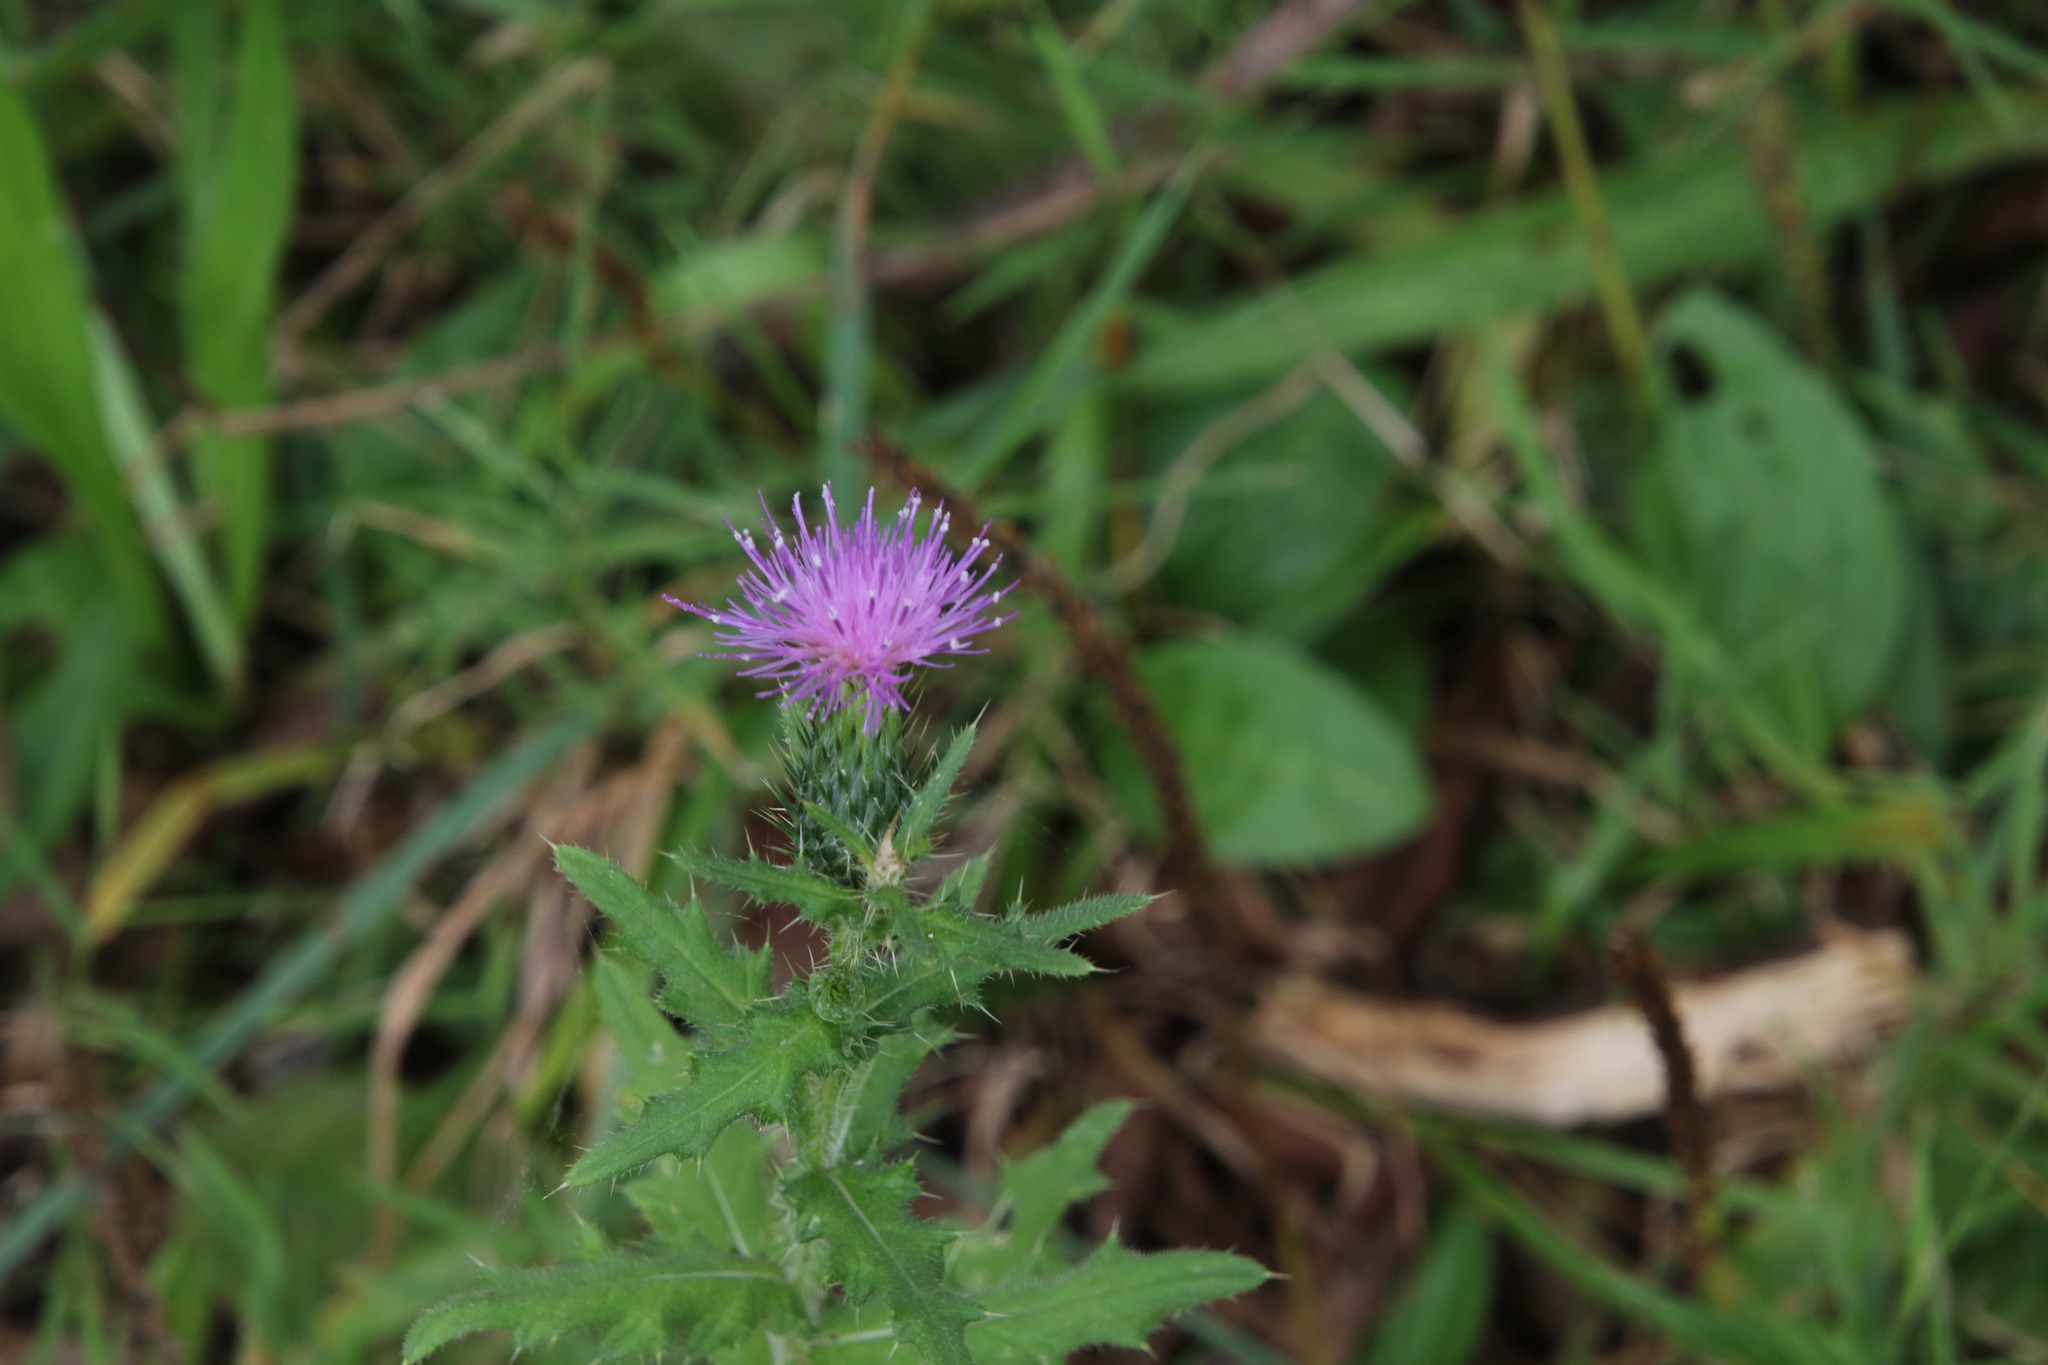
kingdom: Plantae
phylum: Tracheophyta
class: Magnoliopsida
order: Asterales
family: Asteraceae
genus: Cirsium
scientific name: Cirsium vulgare
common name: Bull thistle
